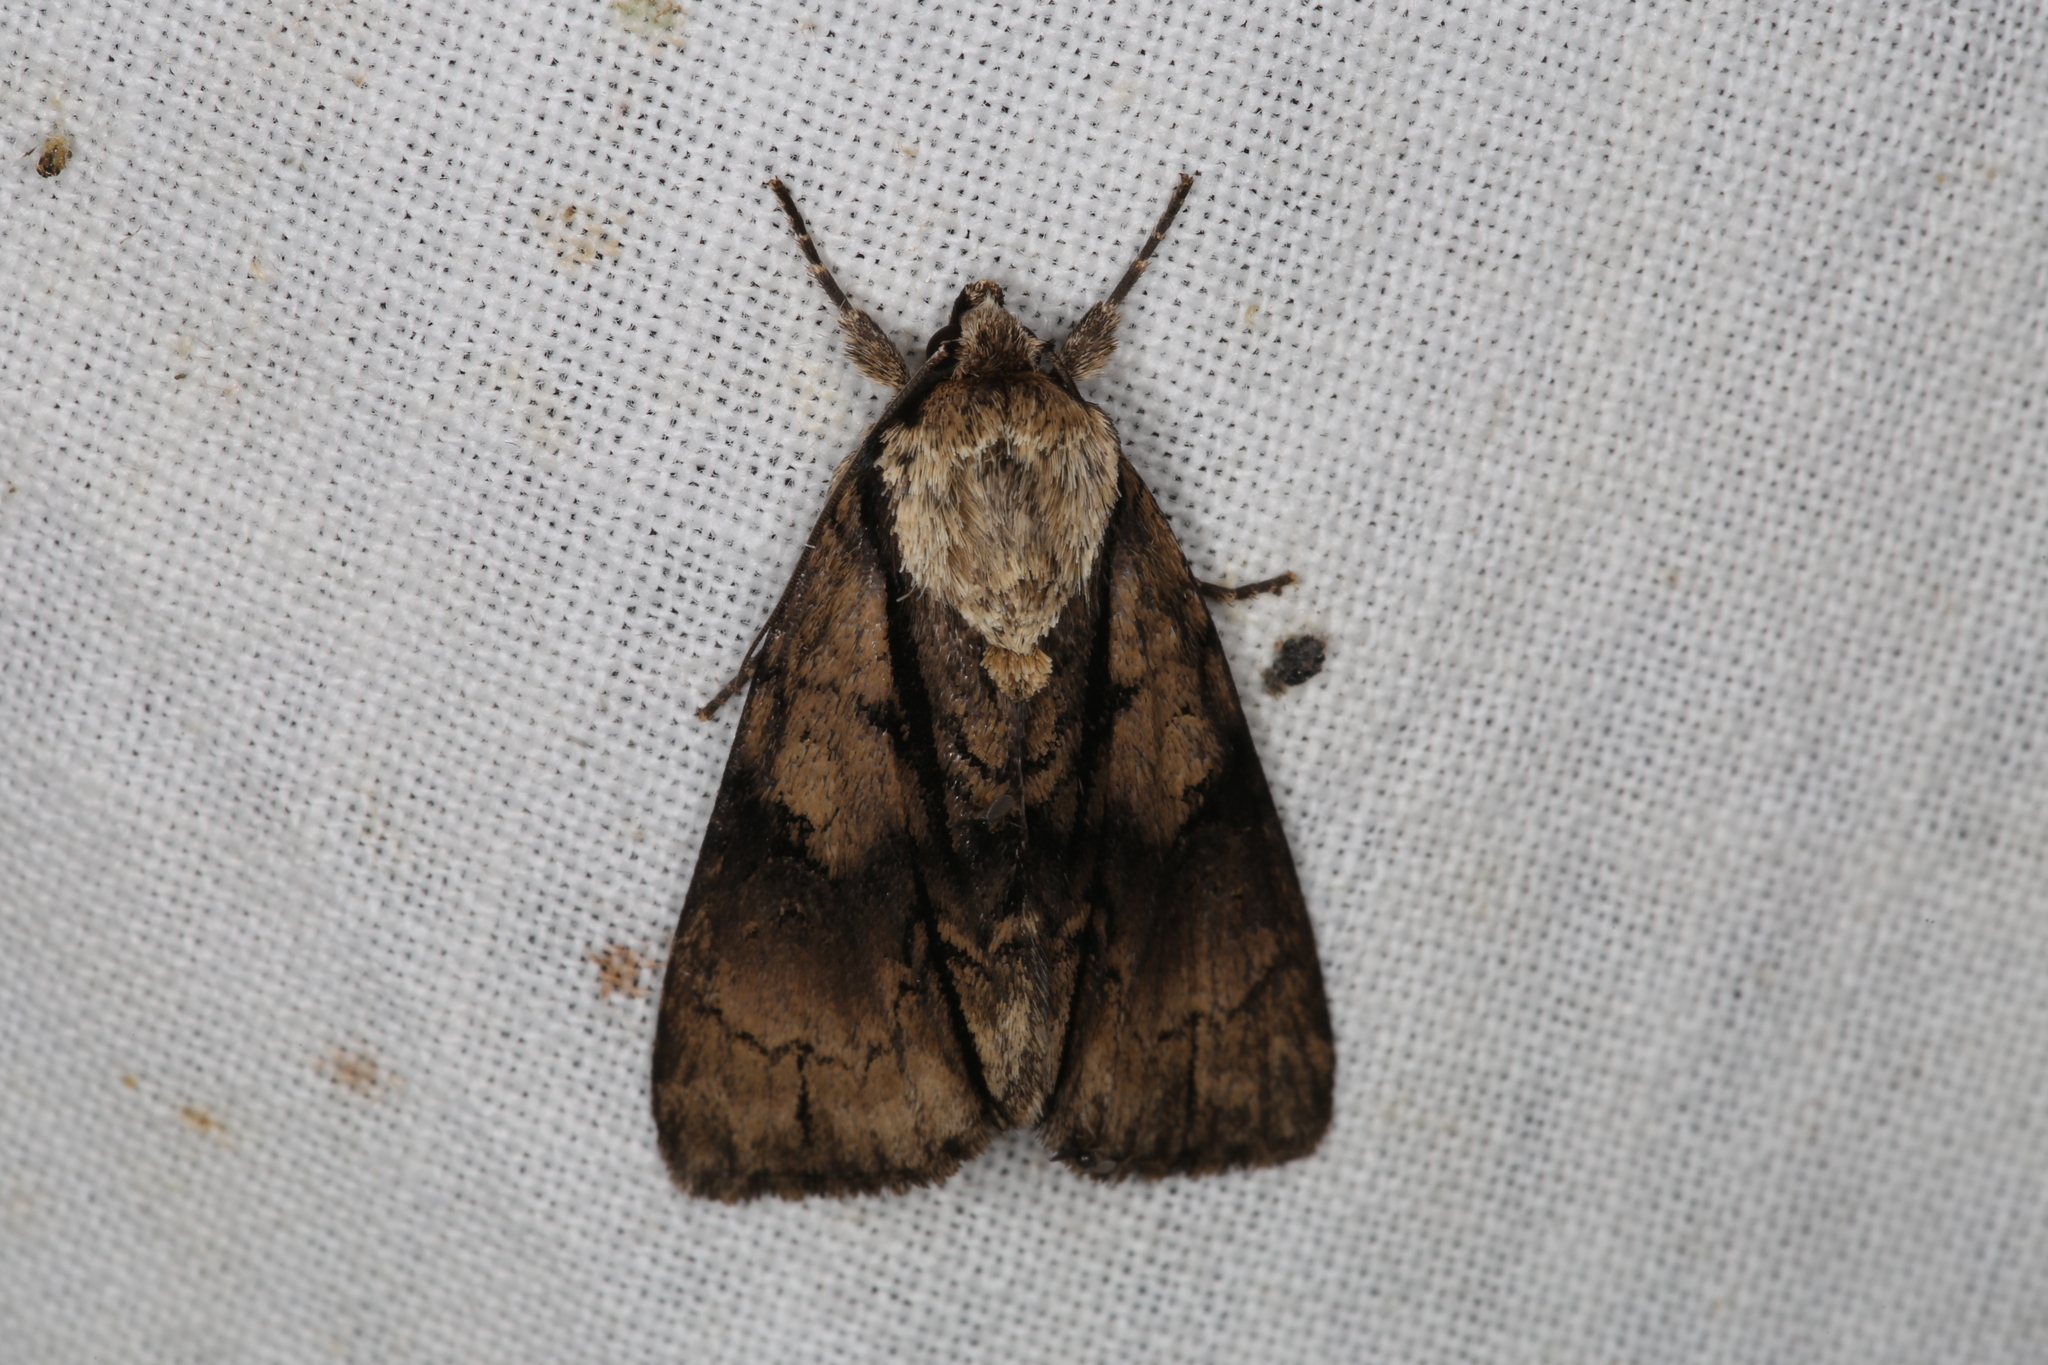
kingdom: Animalia
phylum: Arthropoda
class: Insecta
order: Lepidoptera
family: Noctuidae
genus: Acronicta
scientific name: Acronicta alni
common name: Alder moth
